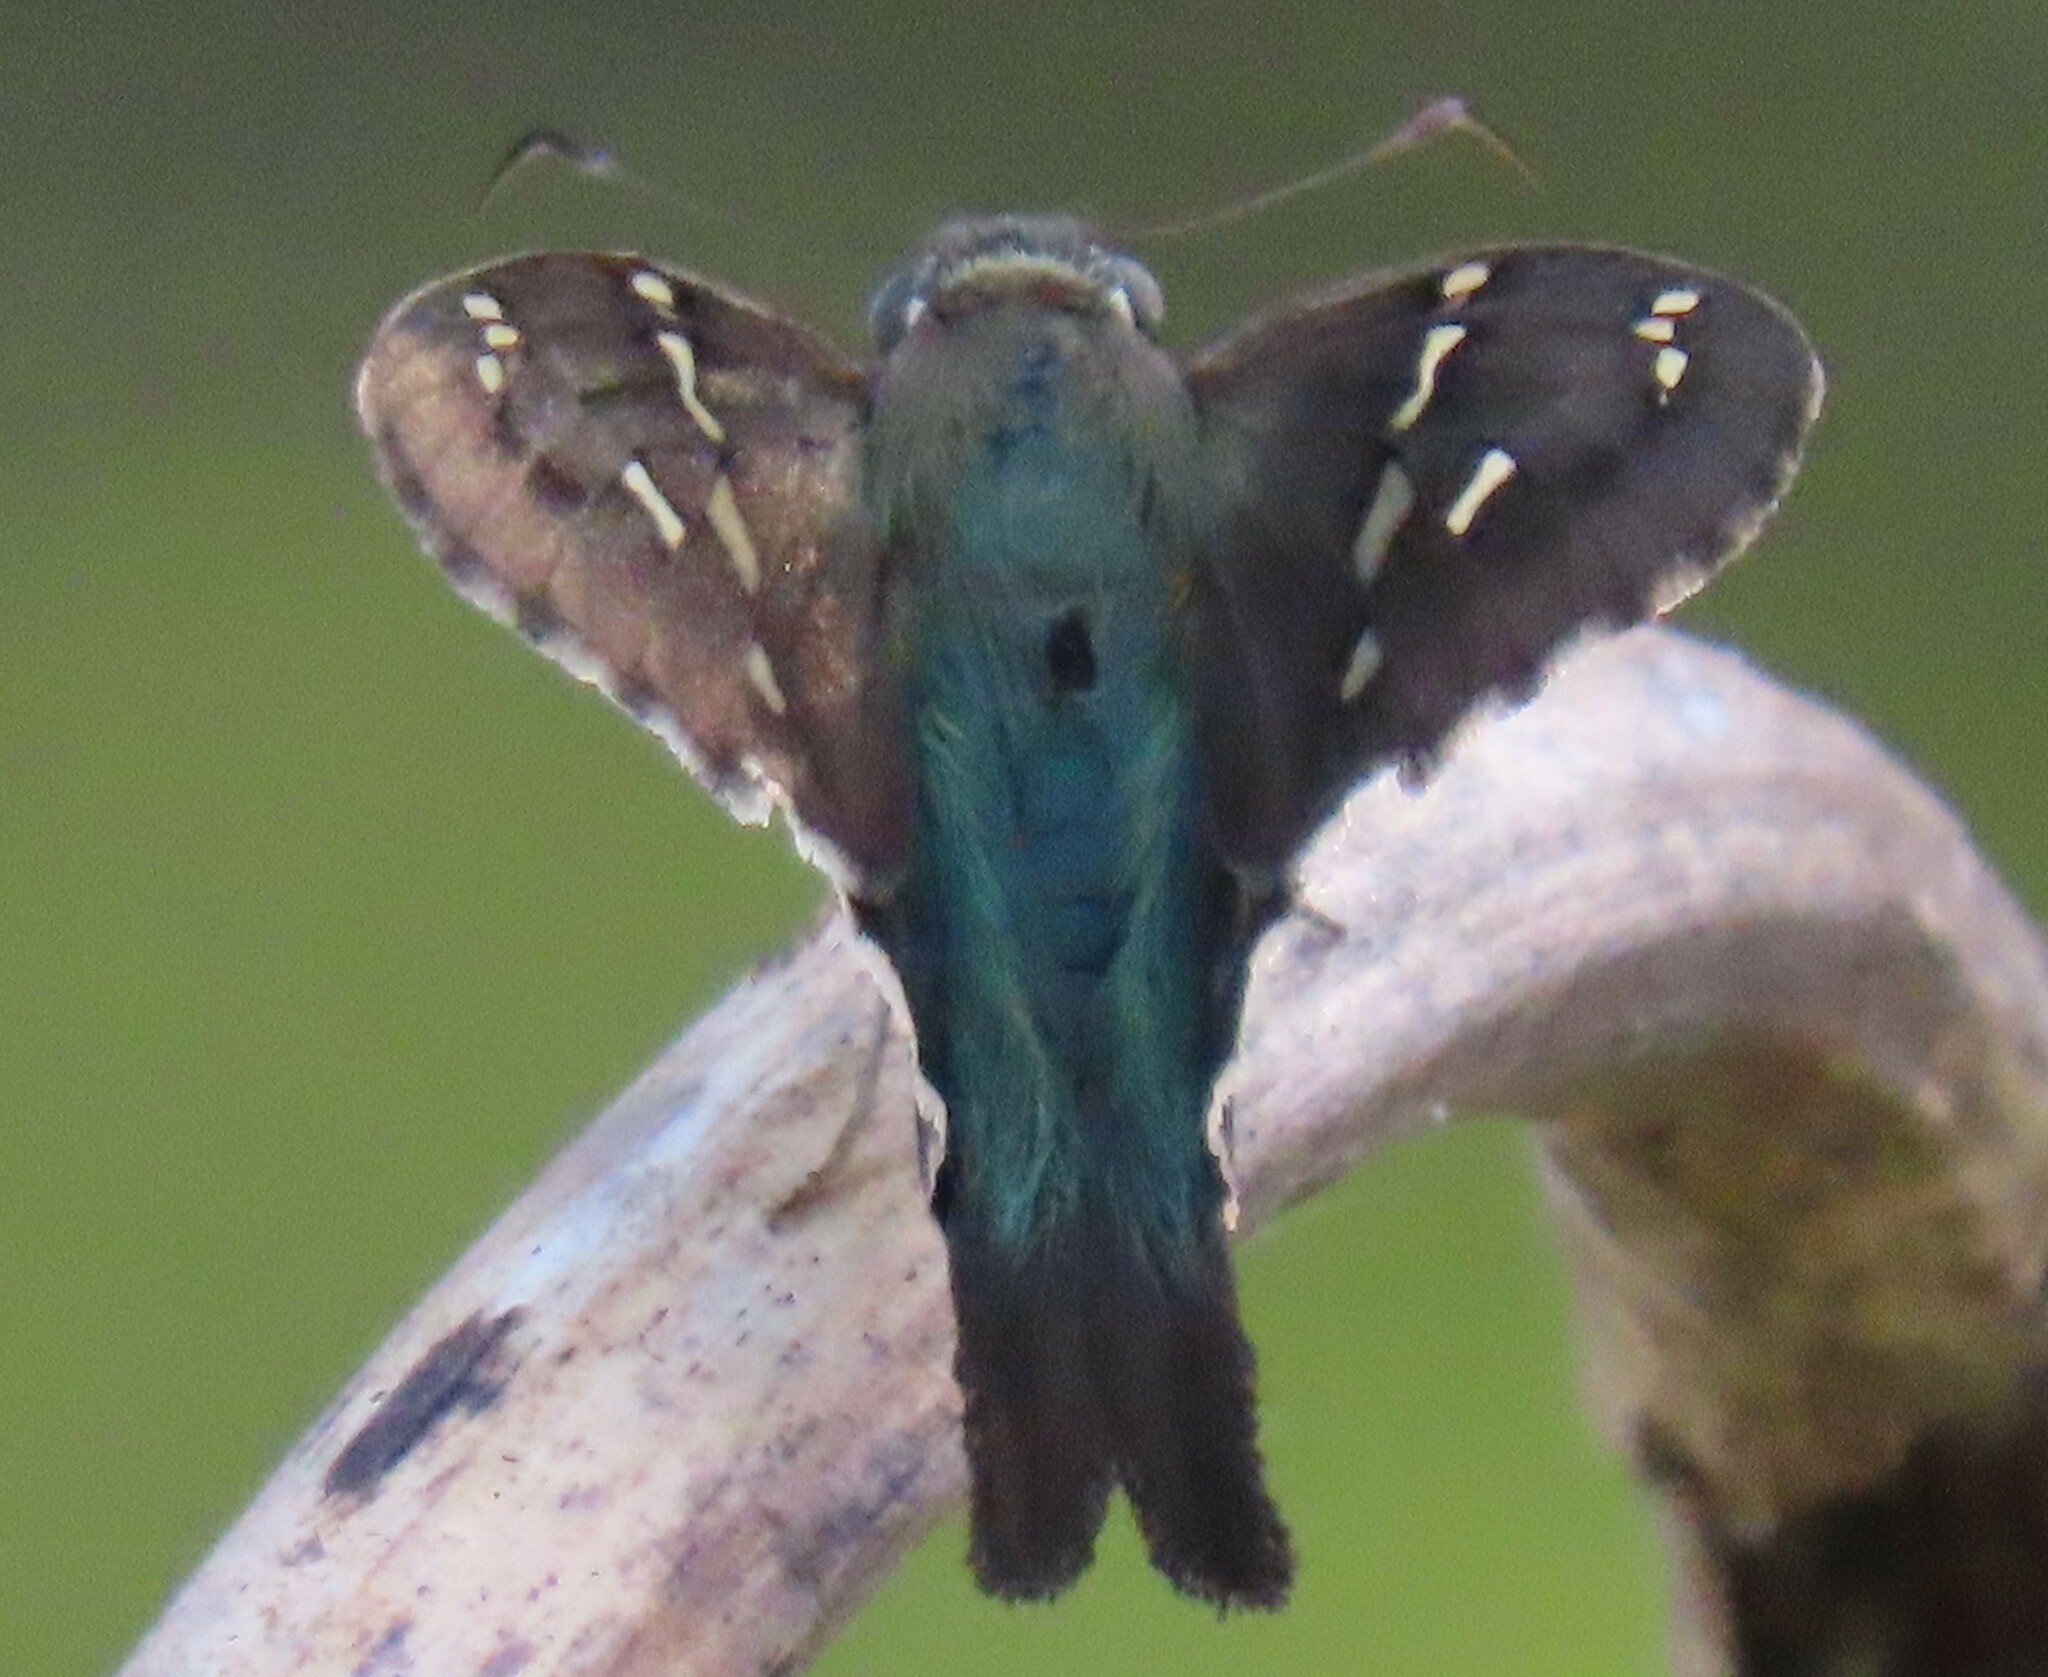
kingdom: Animalia
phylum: Arthropoda
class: Insecta
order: Lepidoptera
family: Hesperiidae
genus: Urbanus
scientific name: Urbanus proteus
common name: Long-tailed skipper
